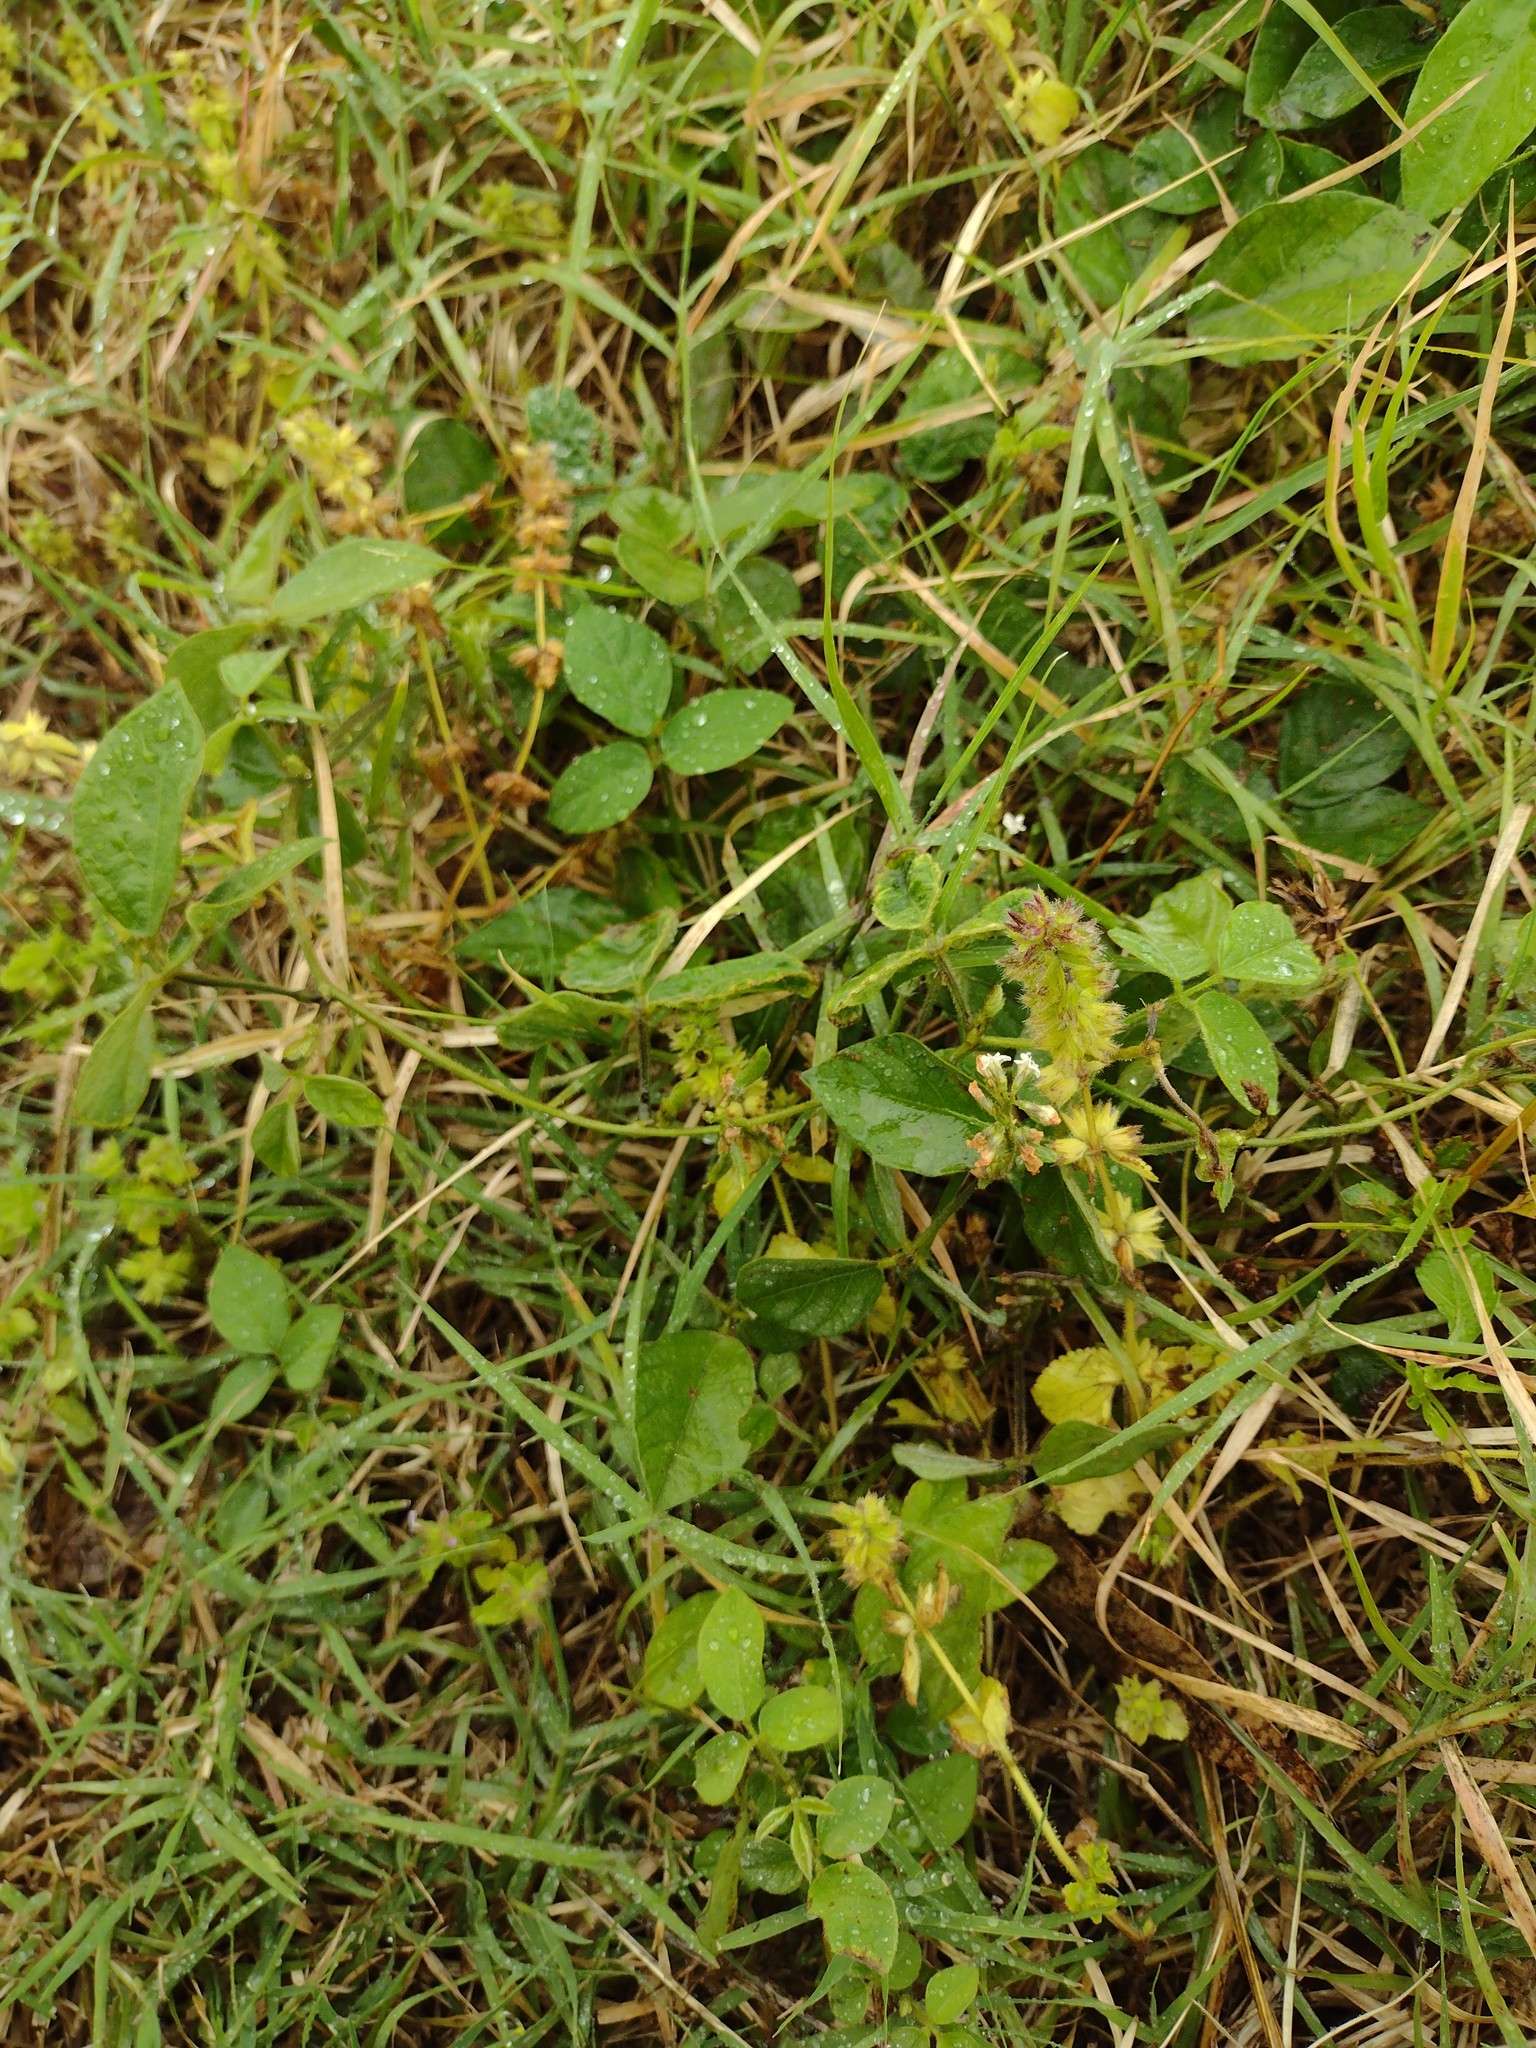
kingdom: Plantae
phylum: Tracheophyta
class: Magnoliopsida
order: Fabales
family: Fabaceae
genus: Neonotonia
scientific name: Neonotonia wightii
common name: Perennial soybean
